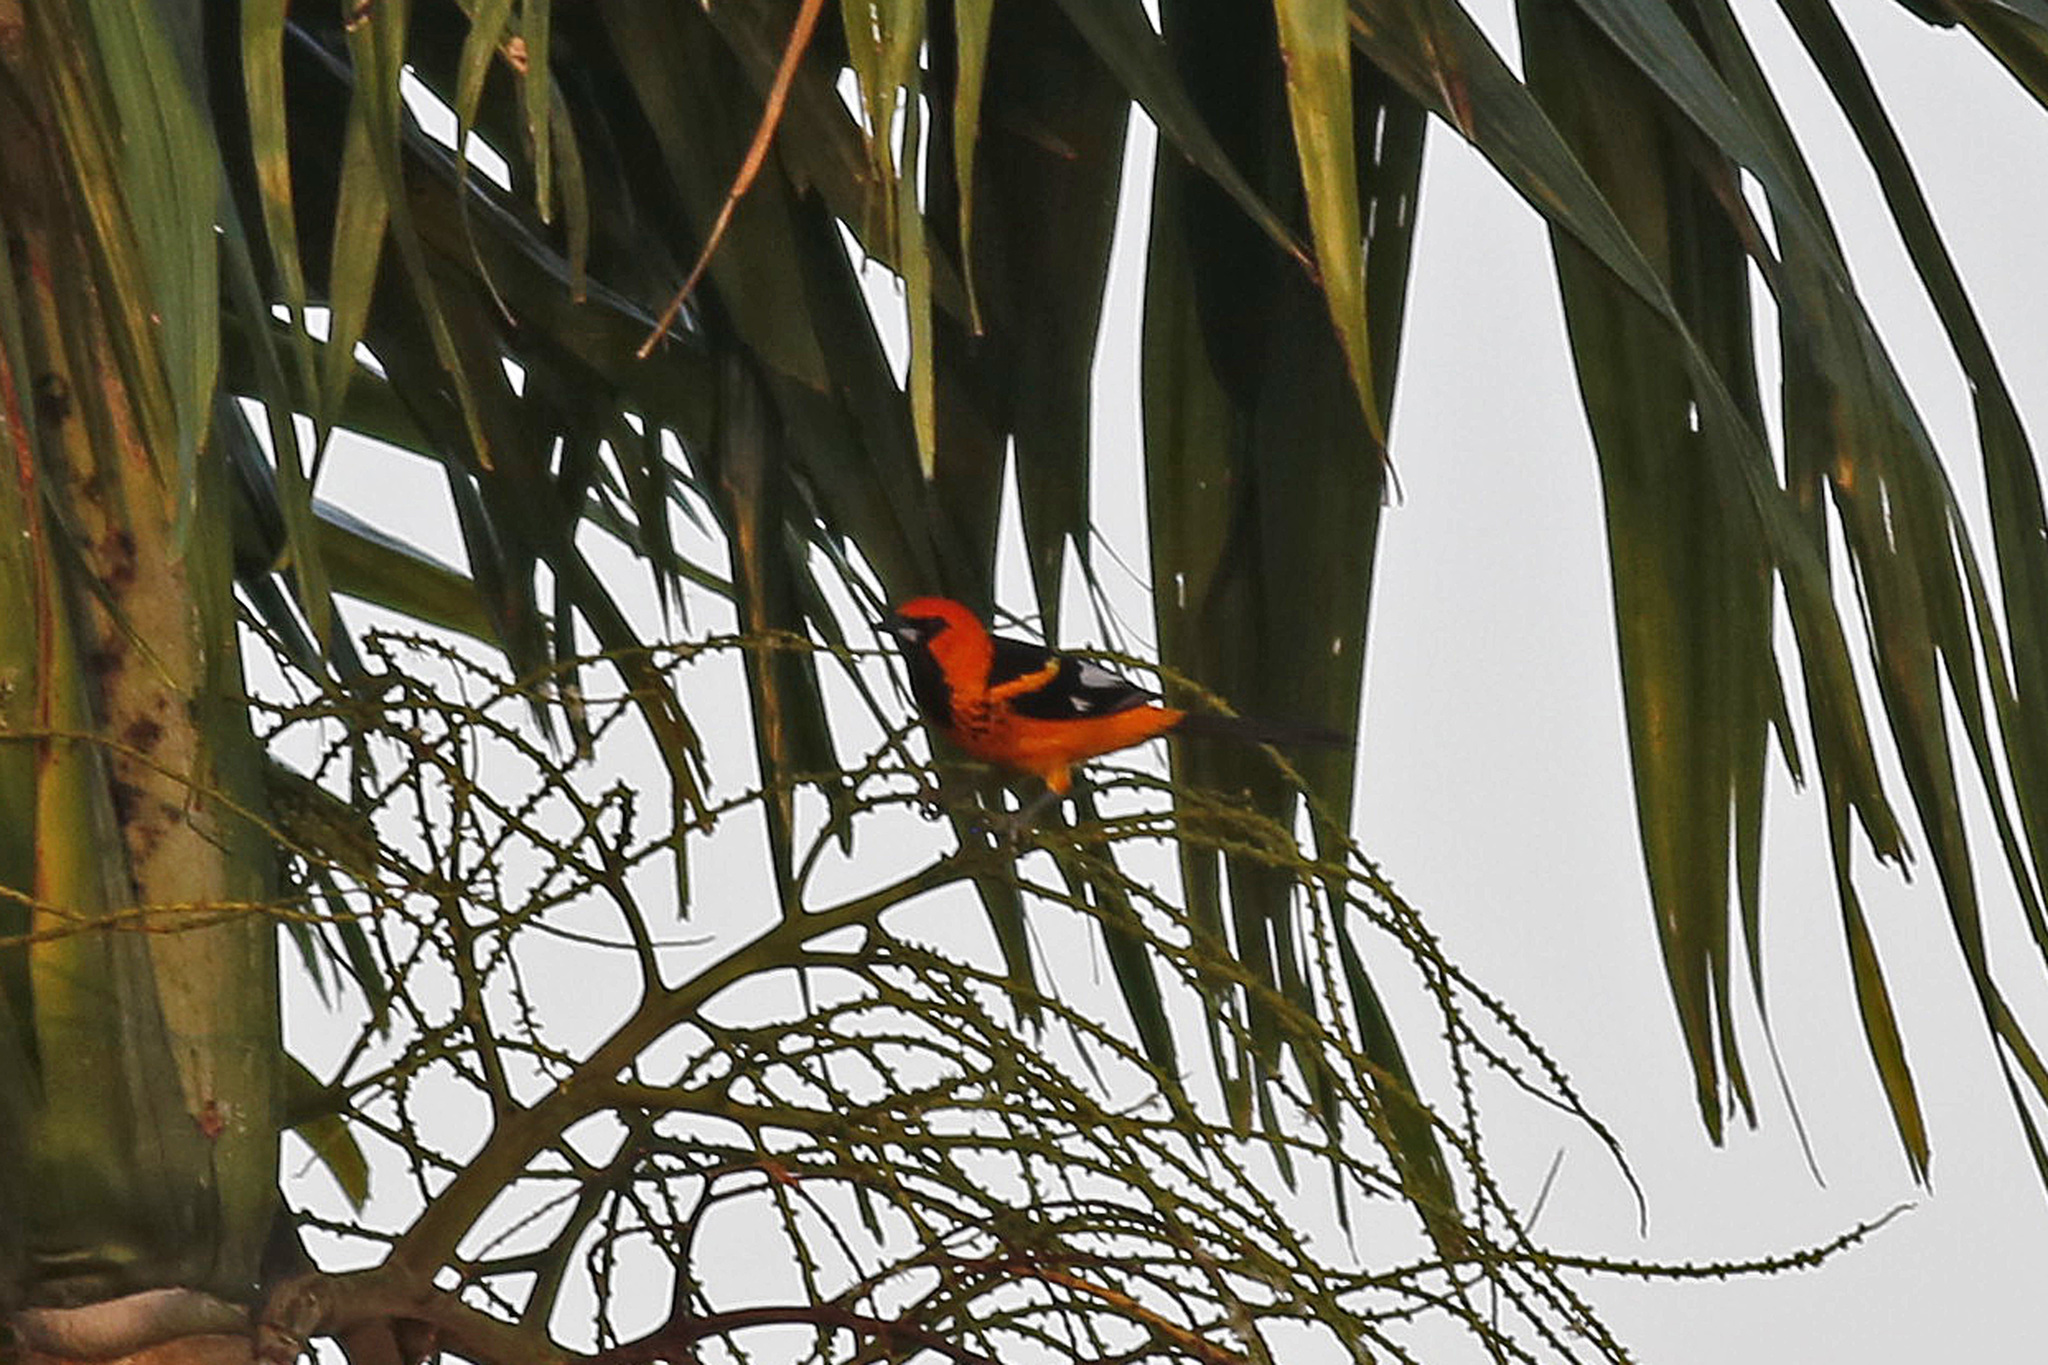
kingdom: Animalia
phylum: Chordata
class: Aves
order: Passeriformes
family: Icteridae
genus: Icterus
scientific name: Icterus pectoralis
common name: Spot-breasted oriole
